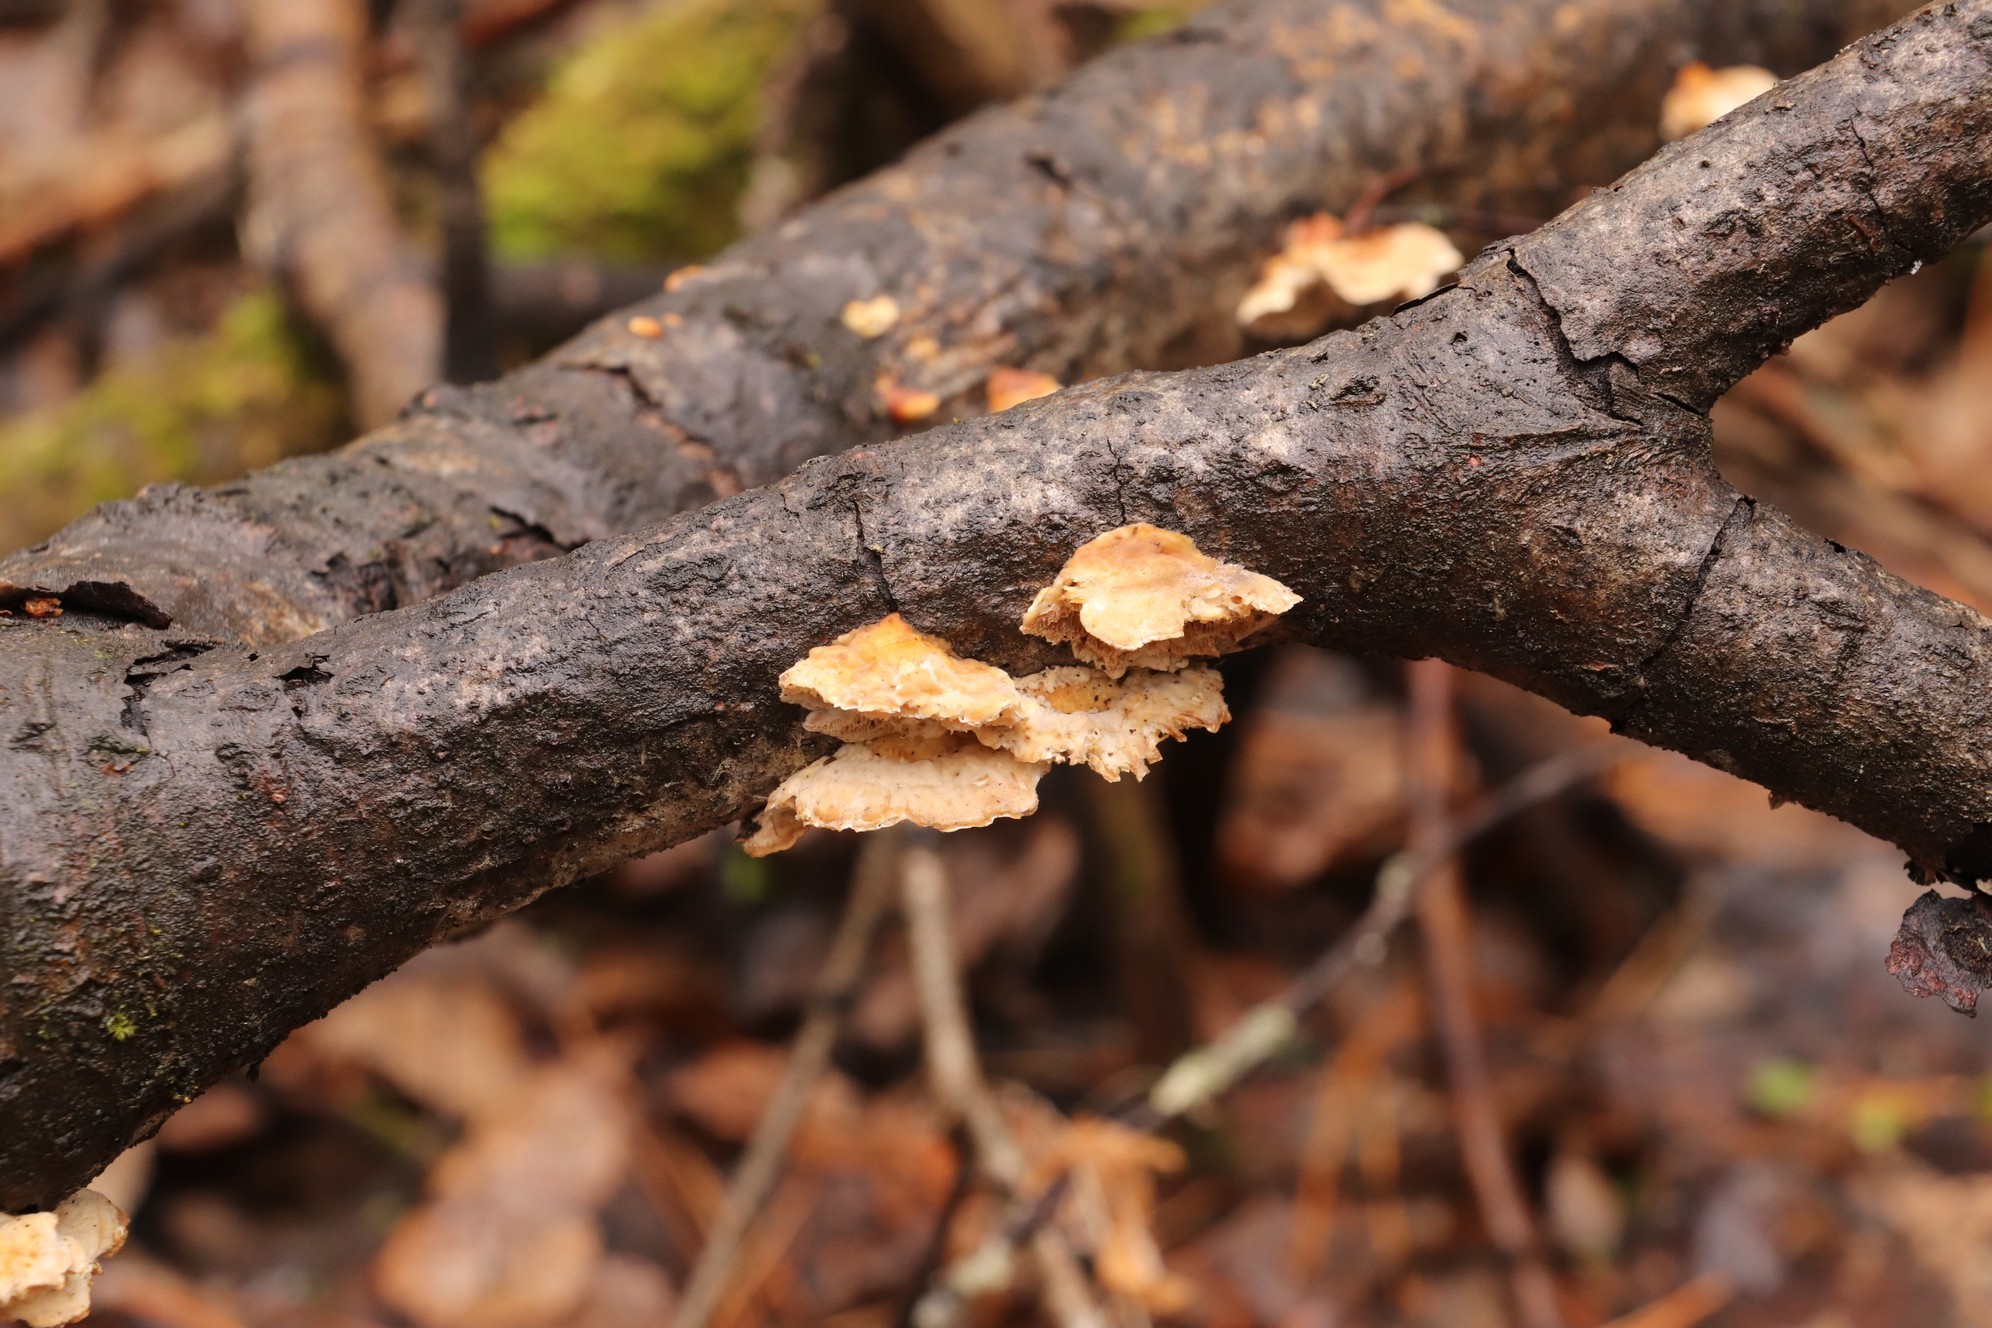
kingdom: Fungi
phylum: Basidiomycota
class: Agaricomycetes
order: Polyporales
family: Polyporaceae
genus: Trametes
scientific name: Trametes ochracea
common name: Ochre bracket
